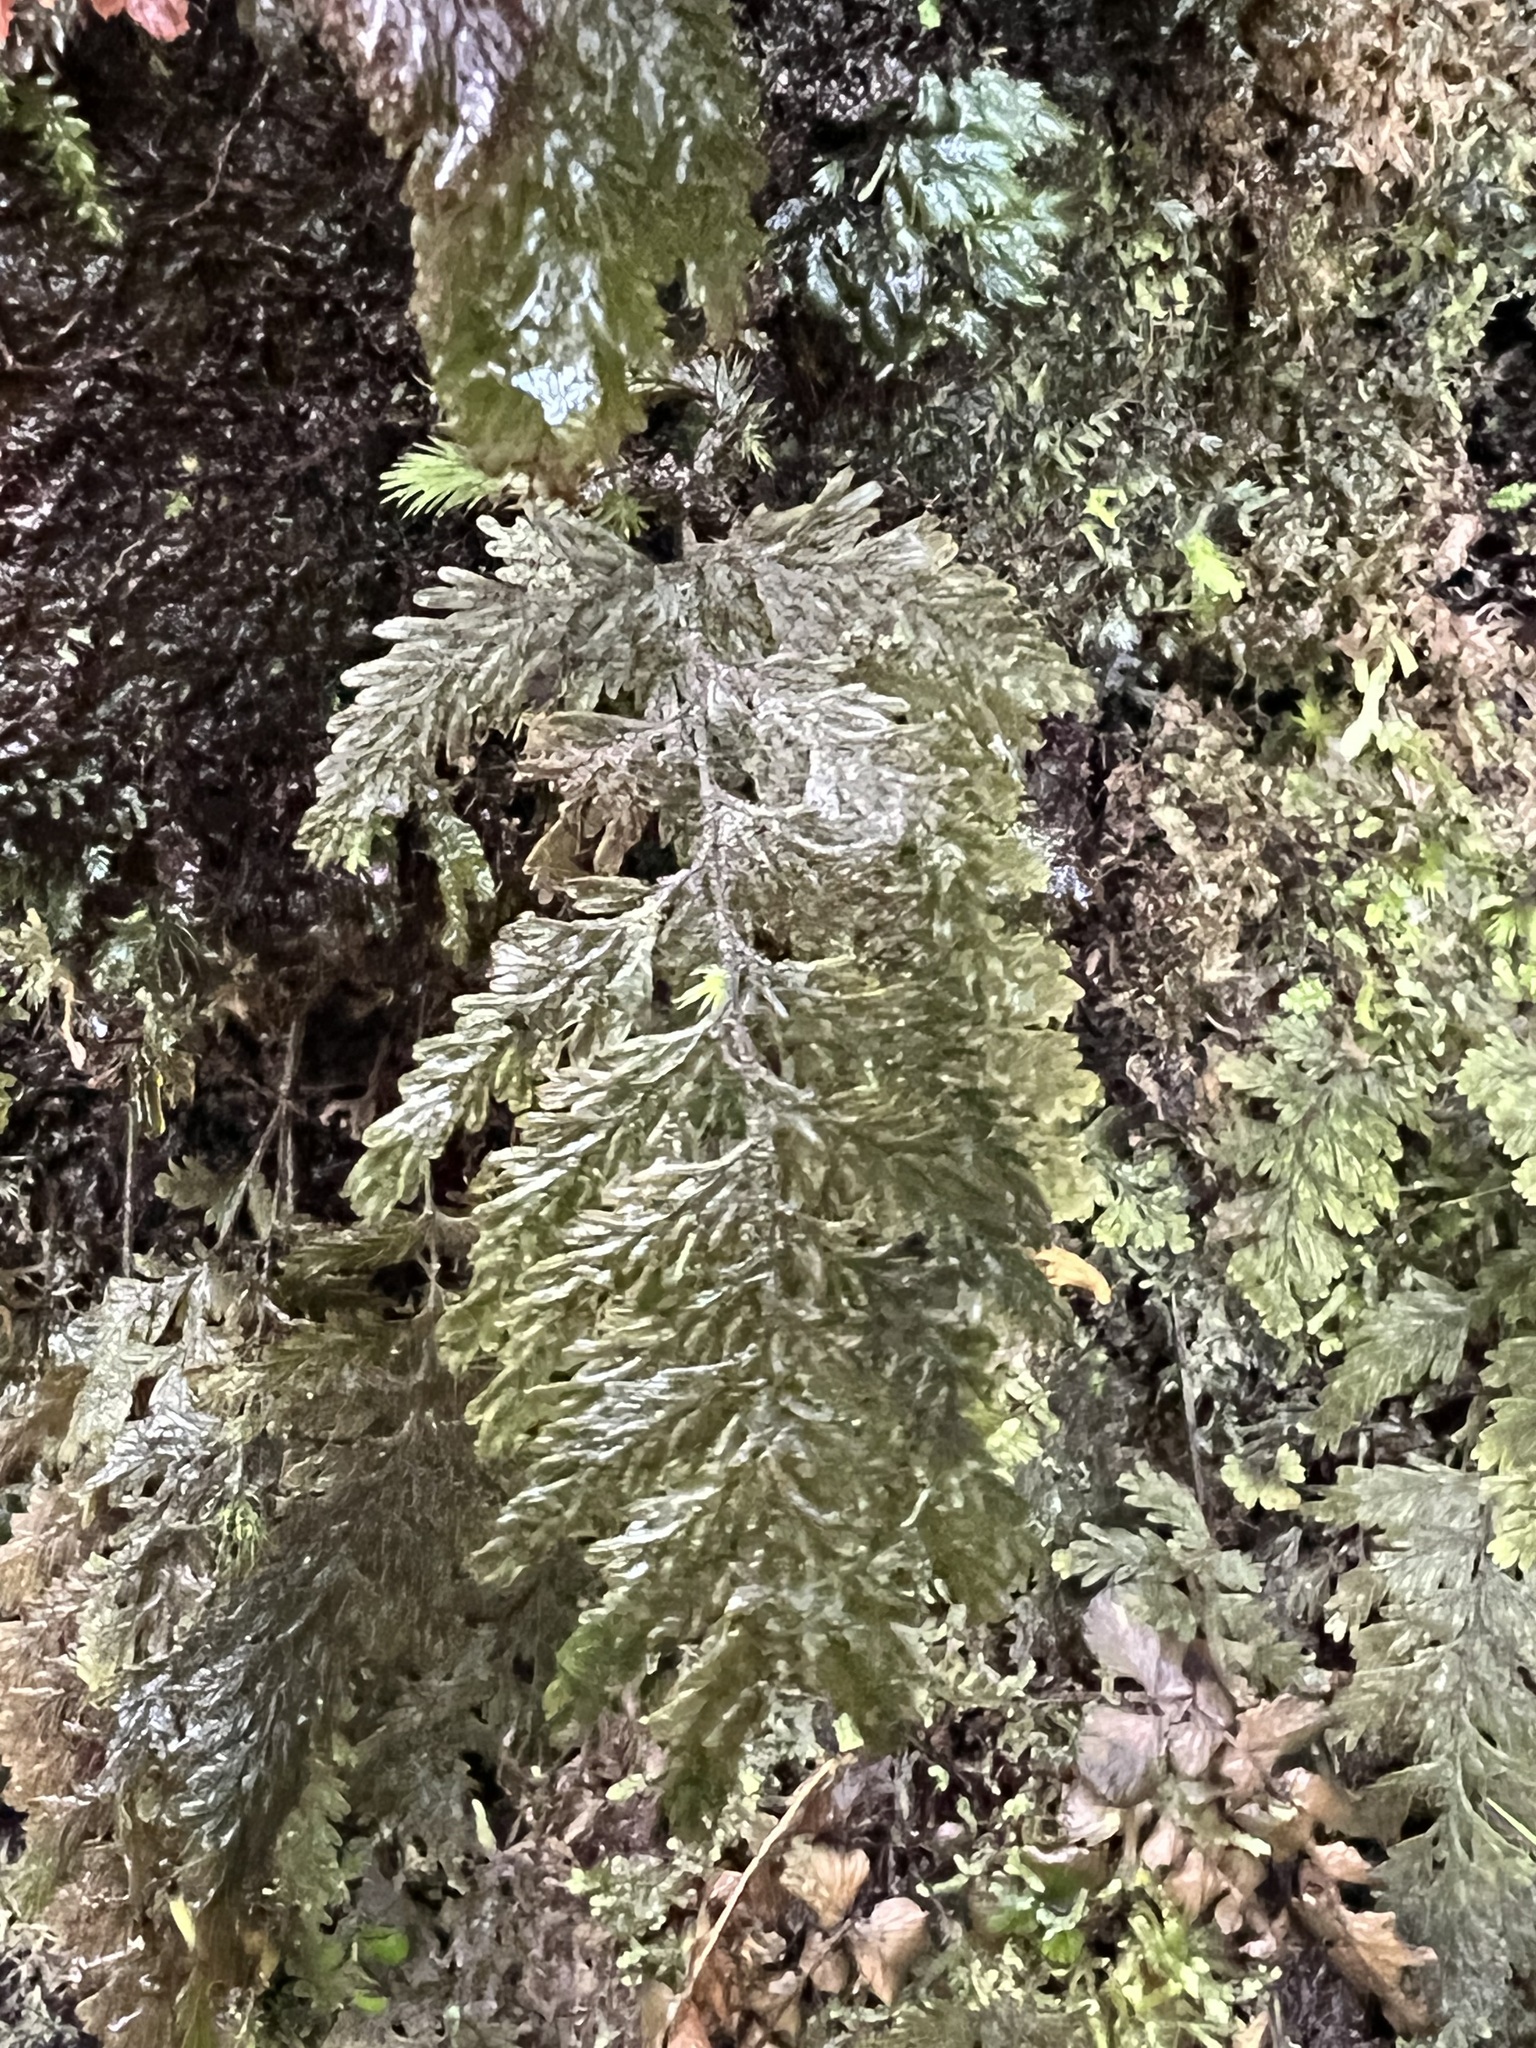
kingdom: Plantae
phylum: Tracheophyta
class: Polypodiopsida
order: Hymenophyllales
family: Hymenophyllaceae
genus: Hymenophyllum
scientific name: Hymenophyllum frankliniae
